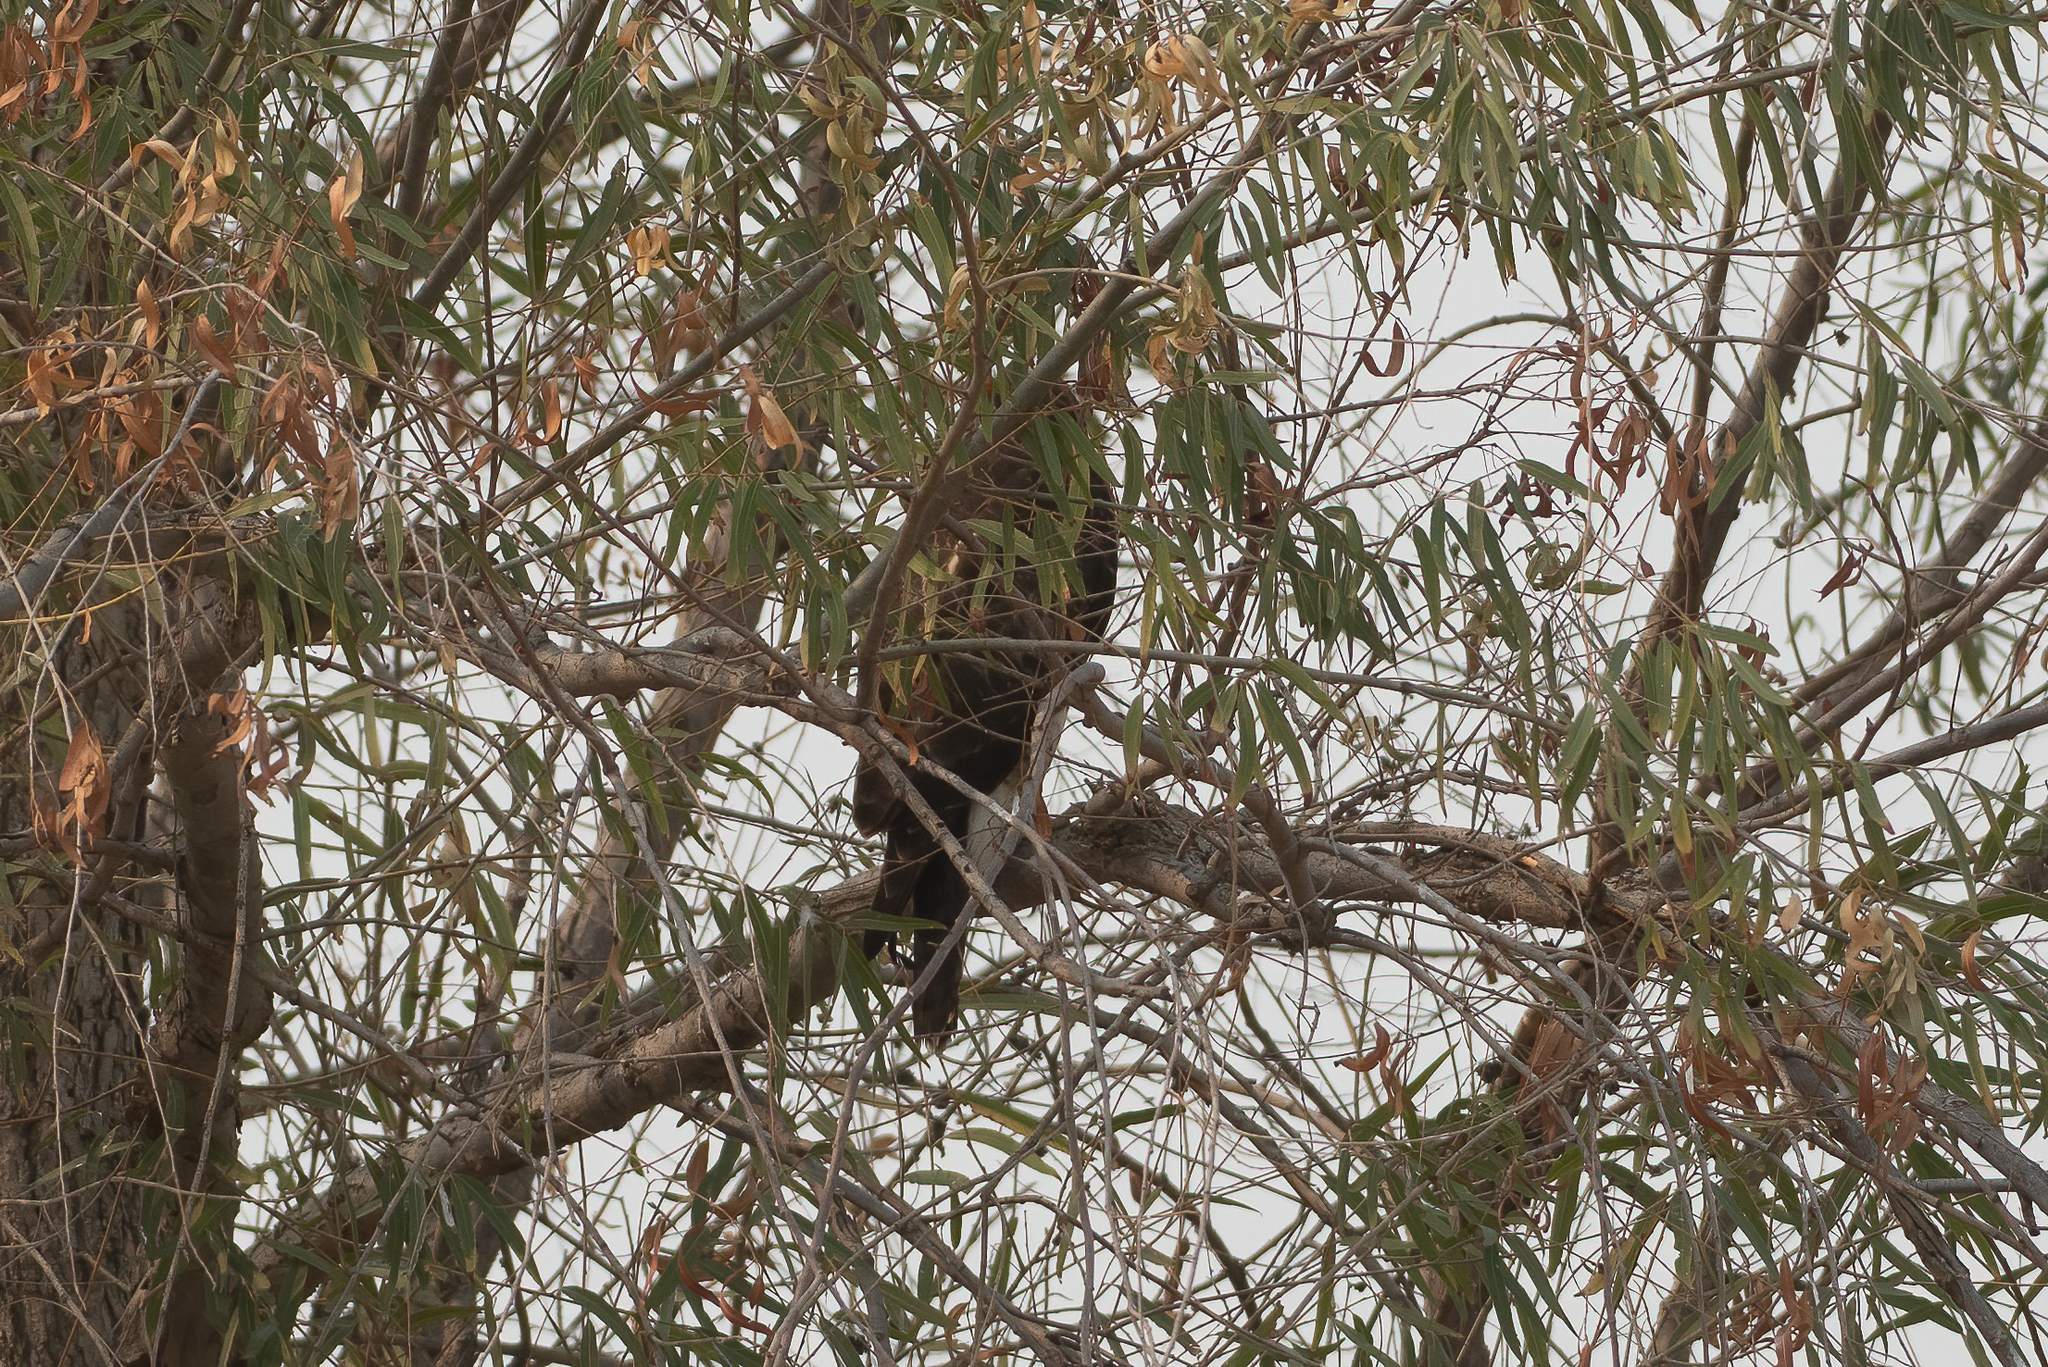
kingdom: Animalia
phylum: Chordata
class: Aves
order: Accipitriformes
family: Accipitridae
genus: Buteo
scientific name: Buteo jamaicensis
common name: Red-tailed hawk
